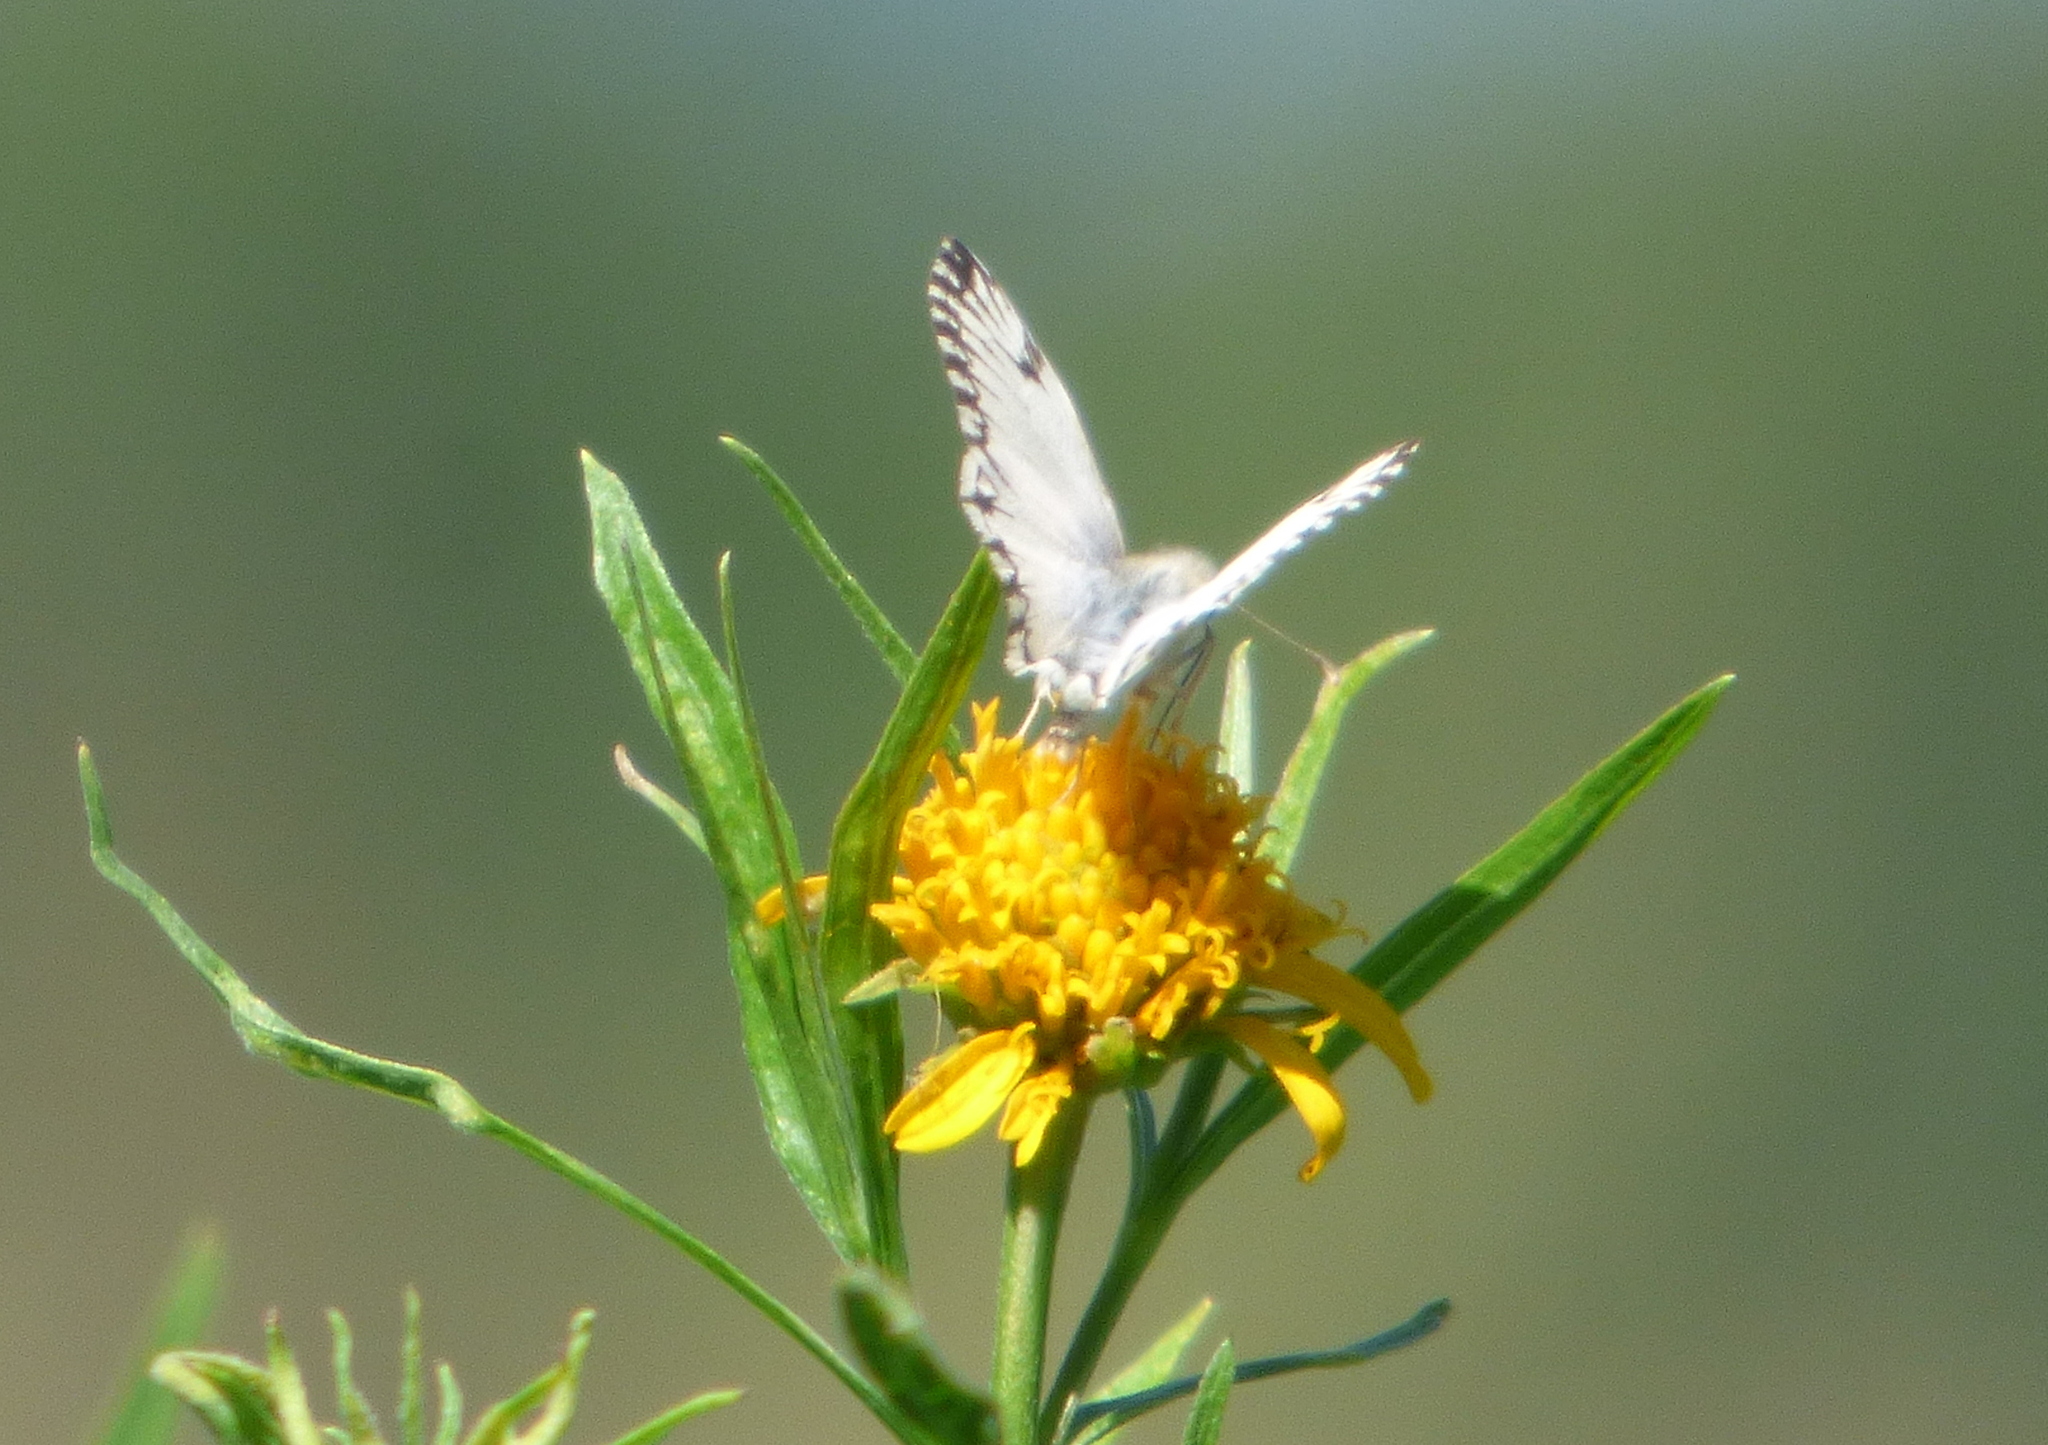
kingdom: Animalia
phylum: Arthropoda
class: Insecta
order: Lepidoptera
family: Hesperiidae
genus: Heliopetes
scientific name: Heliopetes omrina
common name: Stained white-skipper
